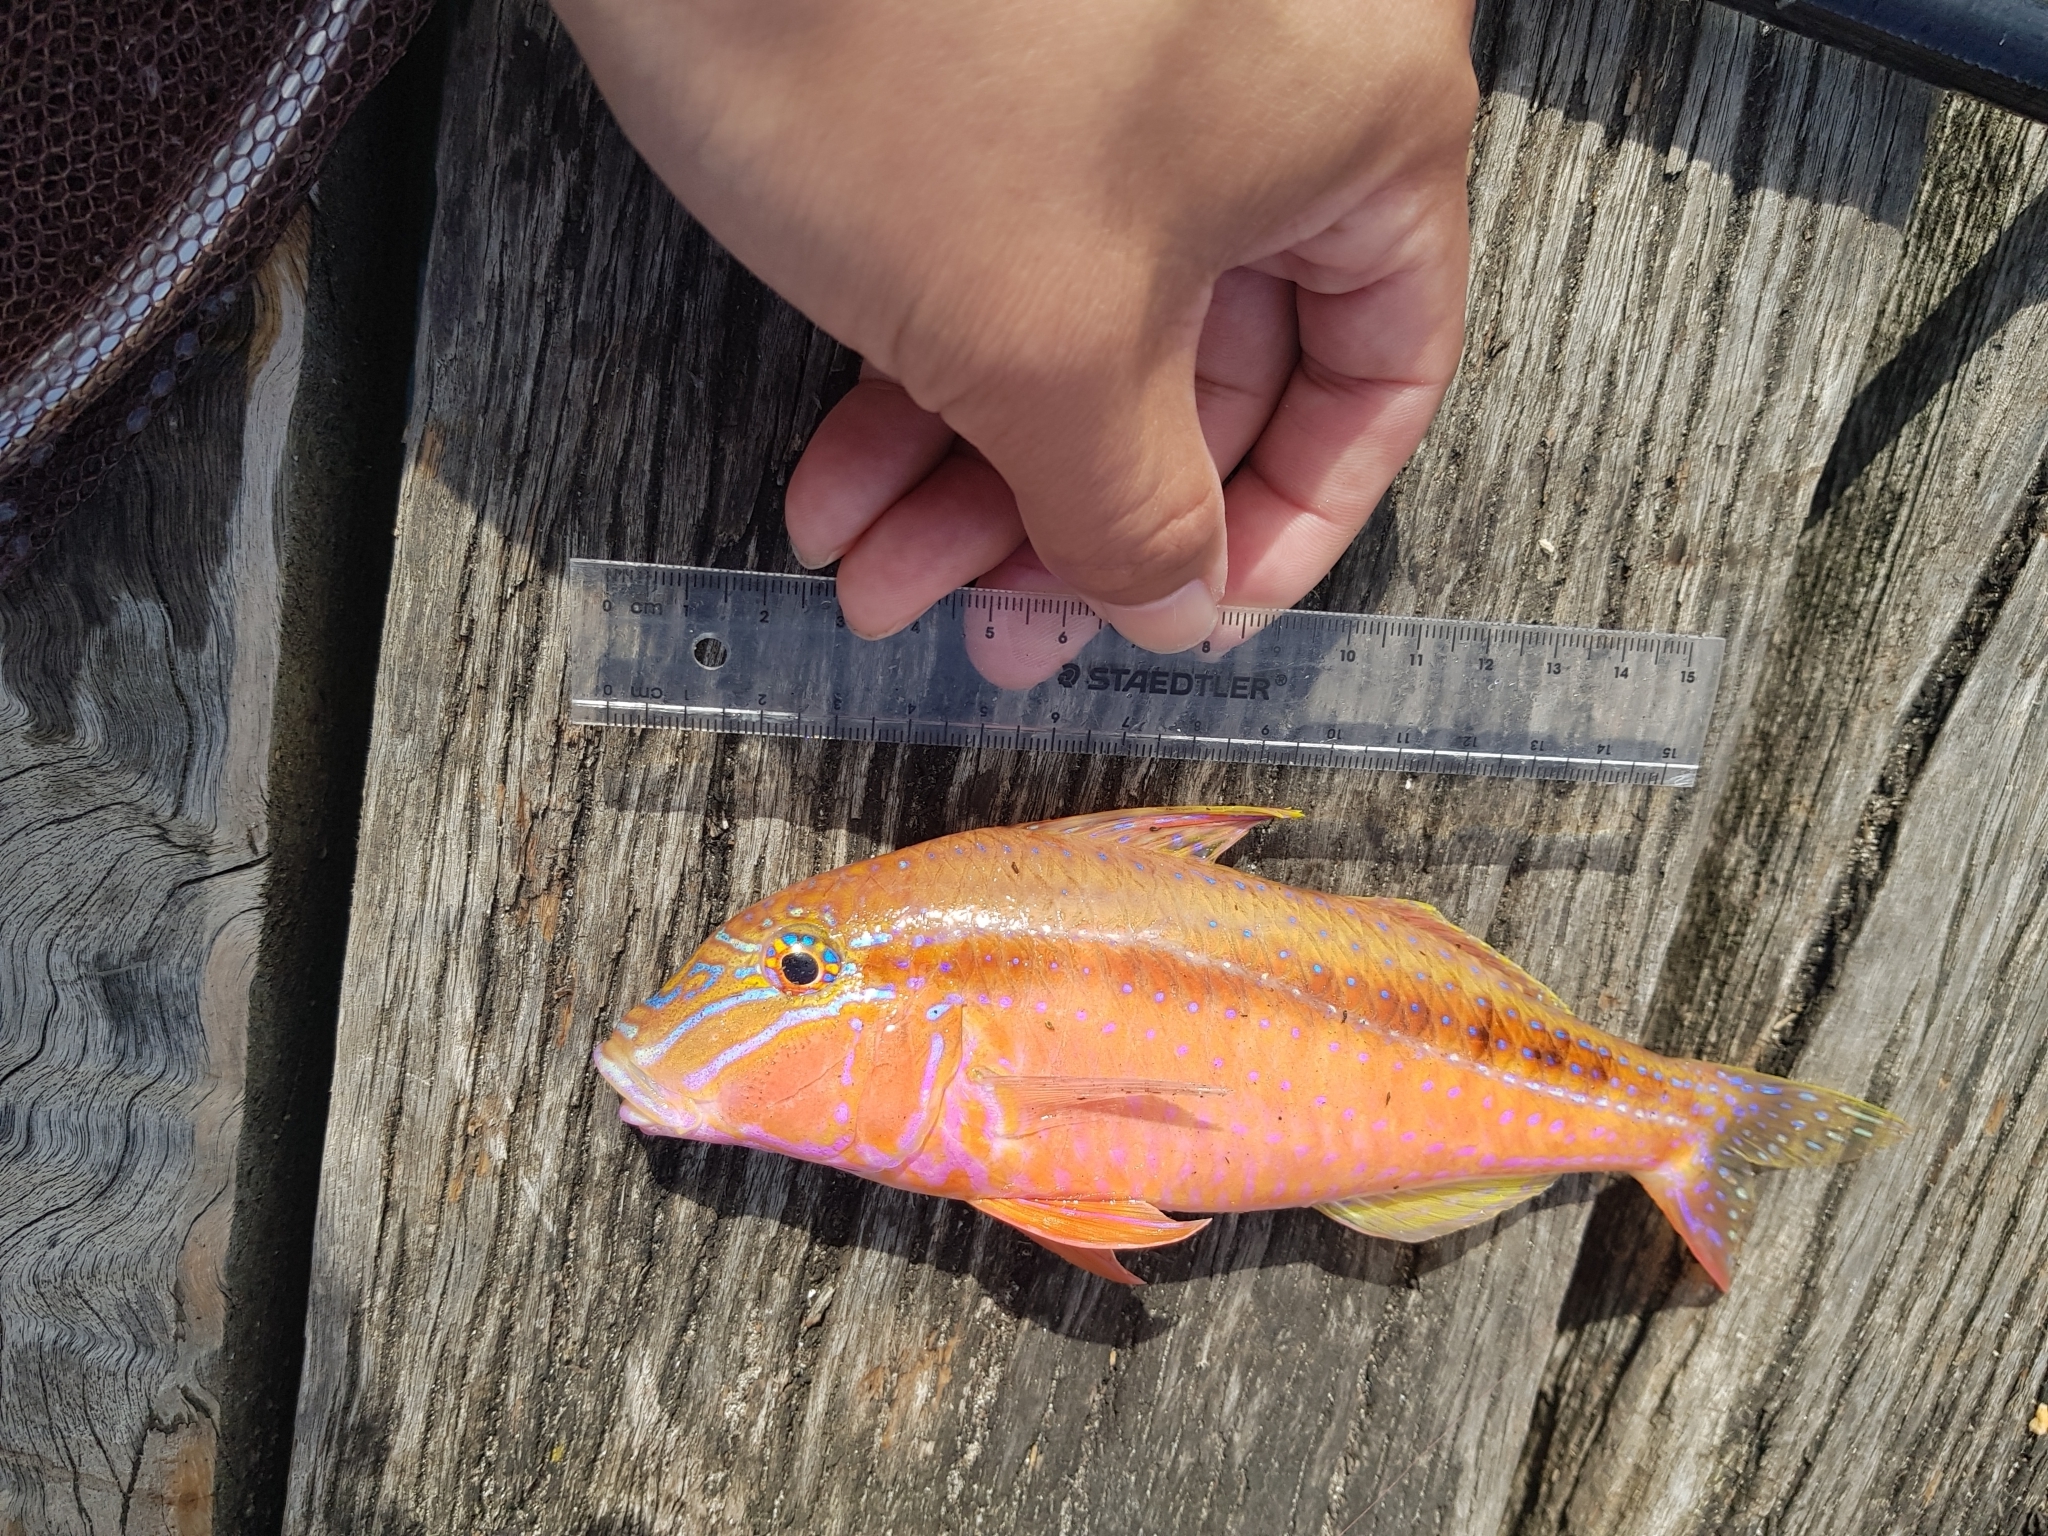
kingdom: Animalia
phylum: Chordata
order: Perciformes
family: Mullidae
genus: Upeneichthys
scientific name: Upeneichthys vlamingii
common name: Red mullet
